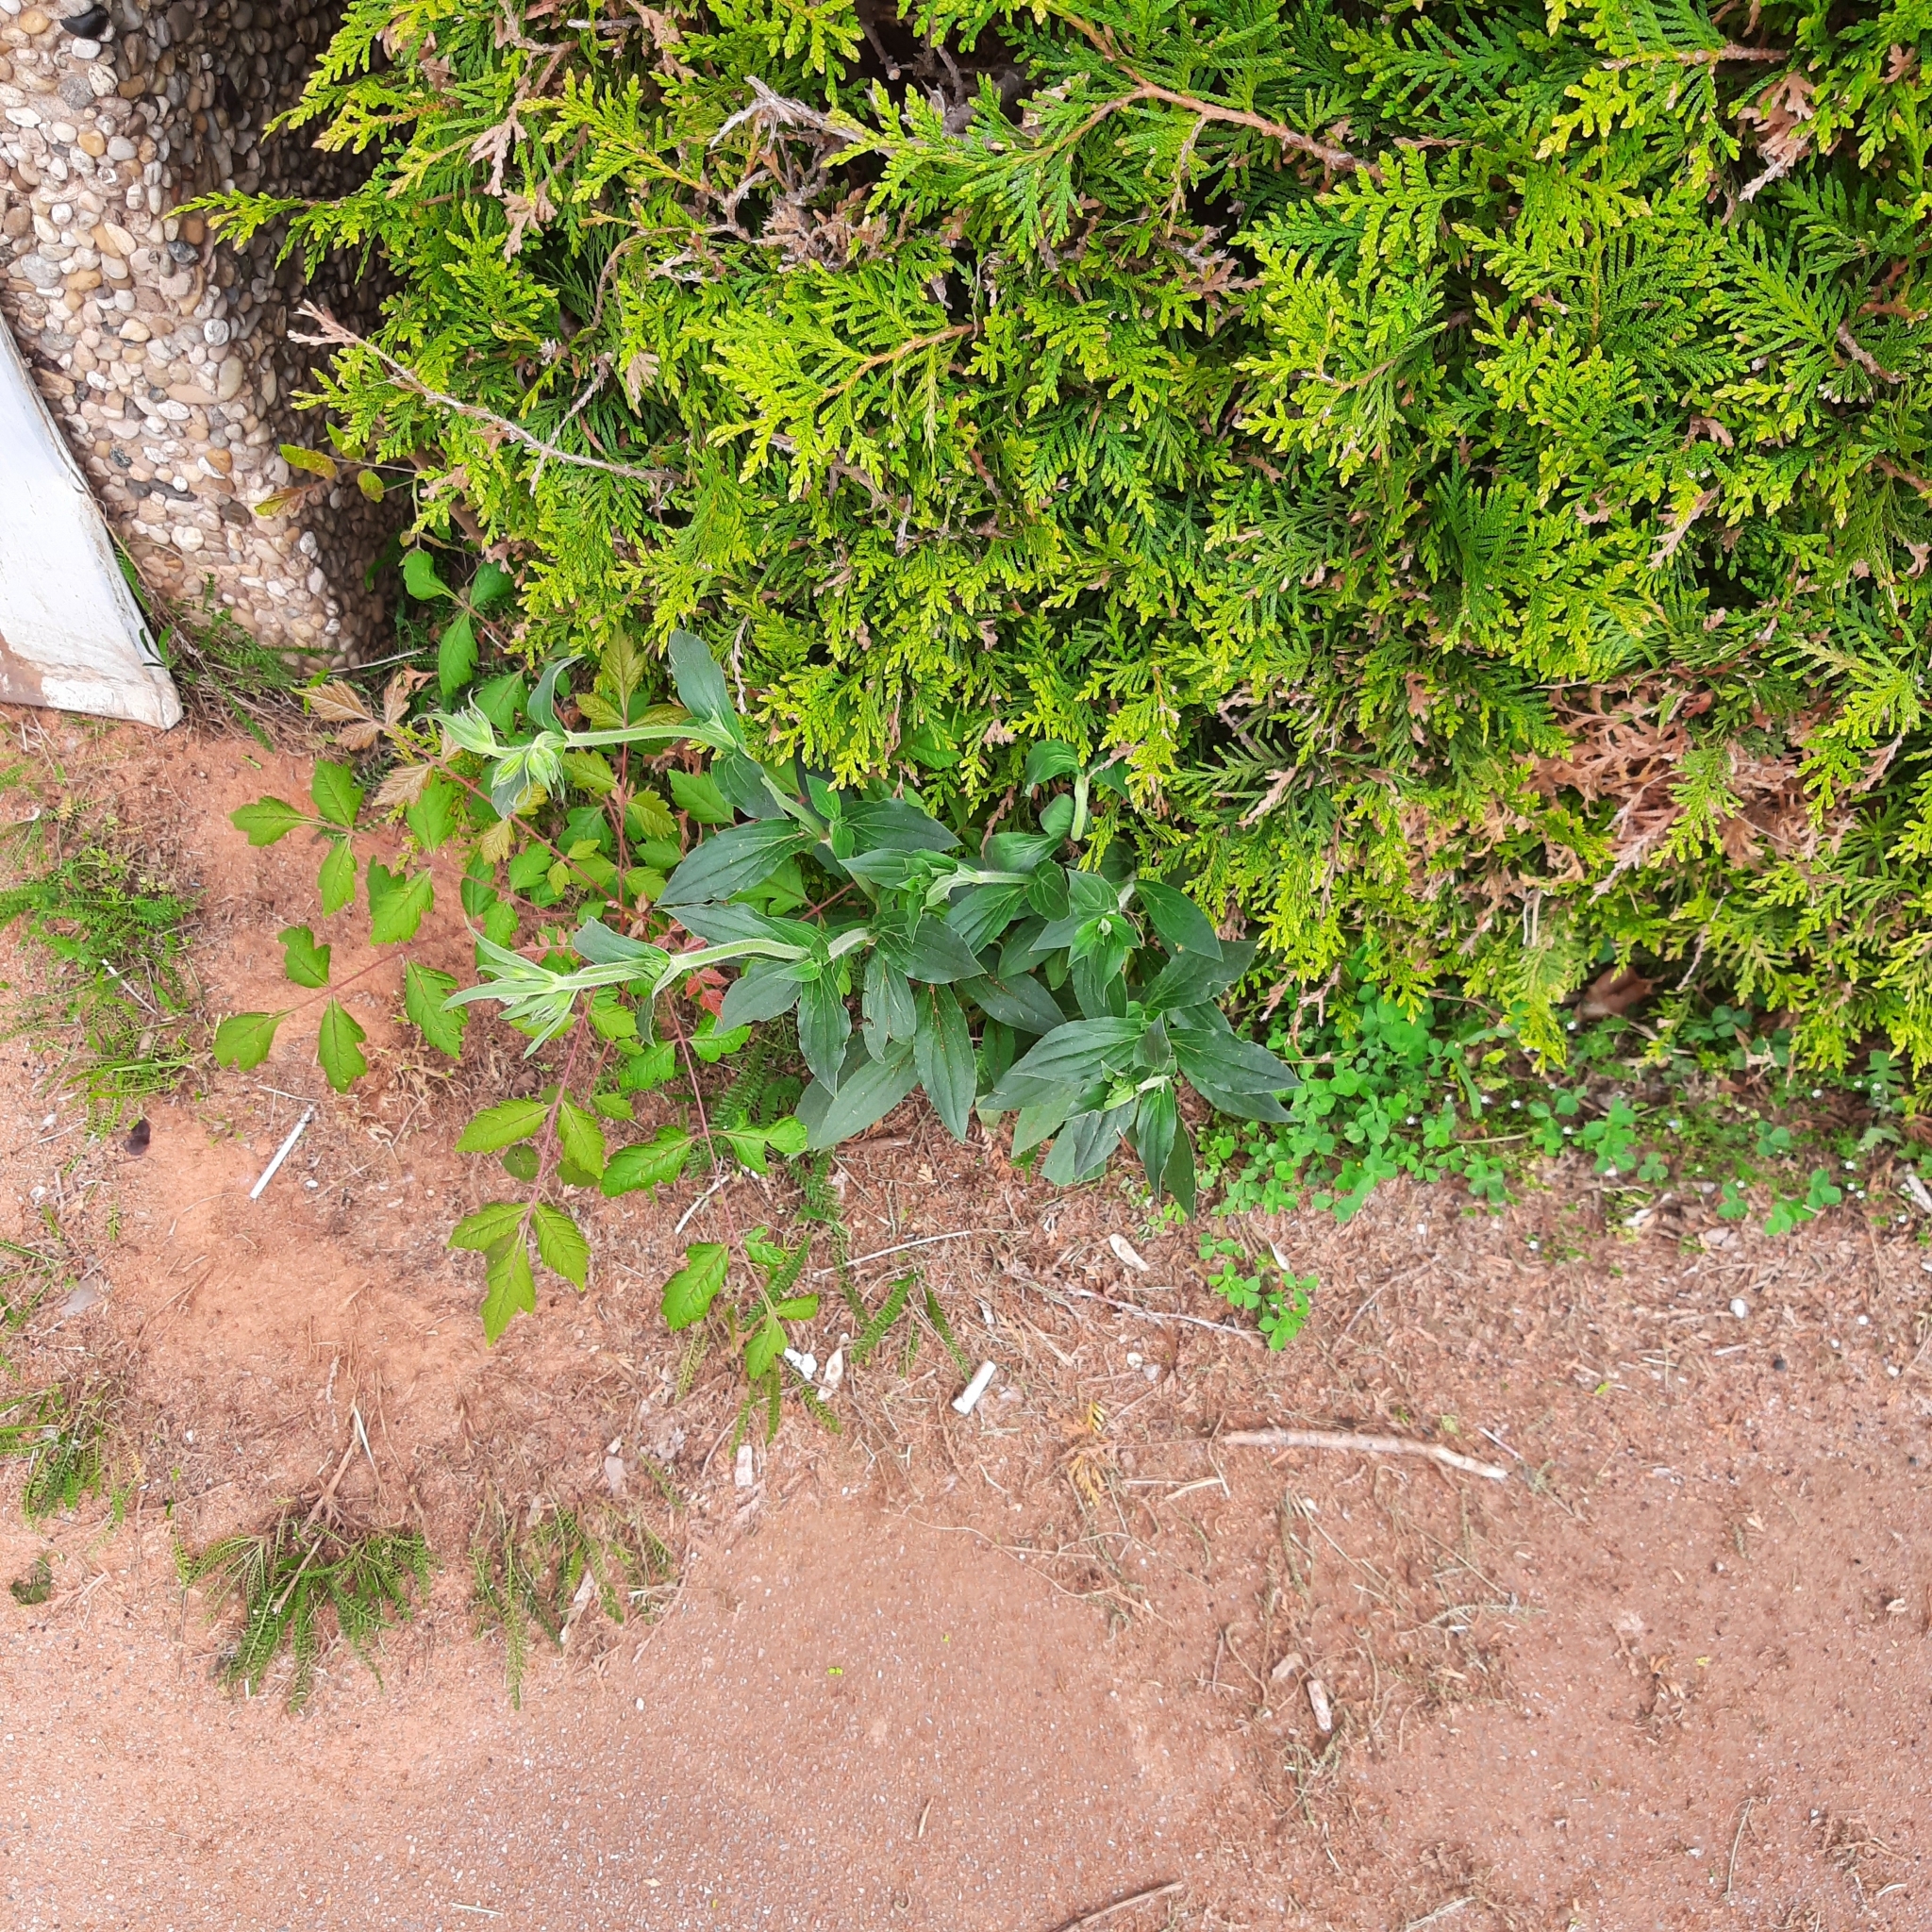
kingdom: Plantae
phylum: Tracheophyta
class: Magnoliopsida
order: Caryophyllales
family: Caryophyllaceae
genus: Silene
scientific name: Silene latifolia
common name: White campion
